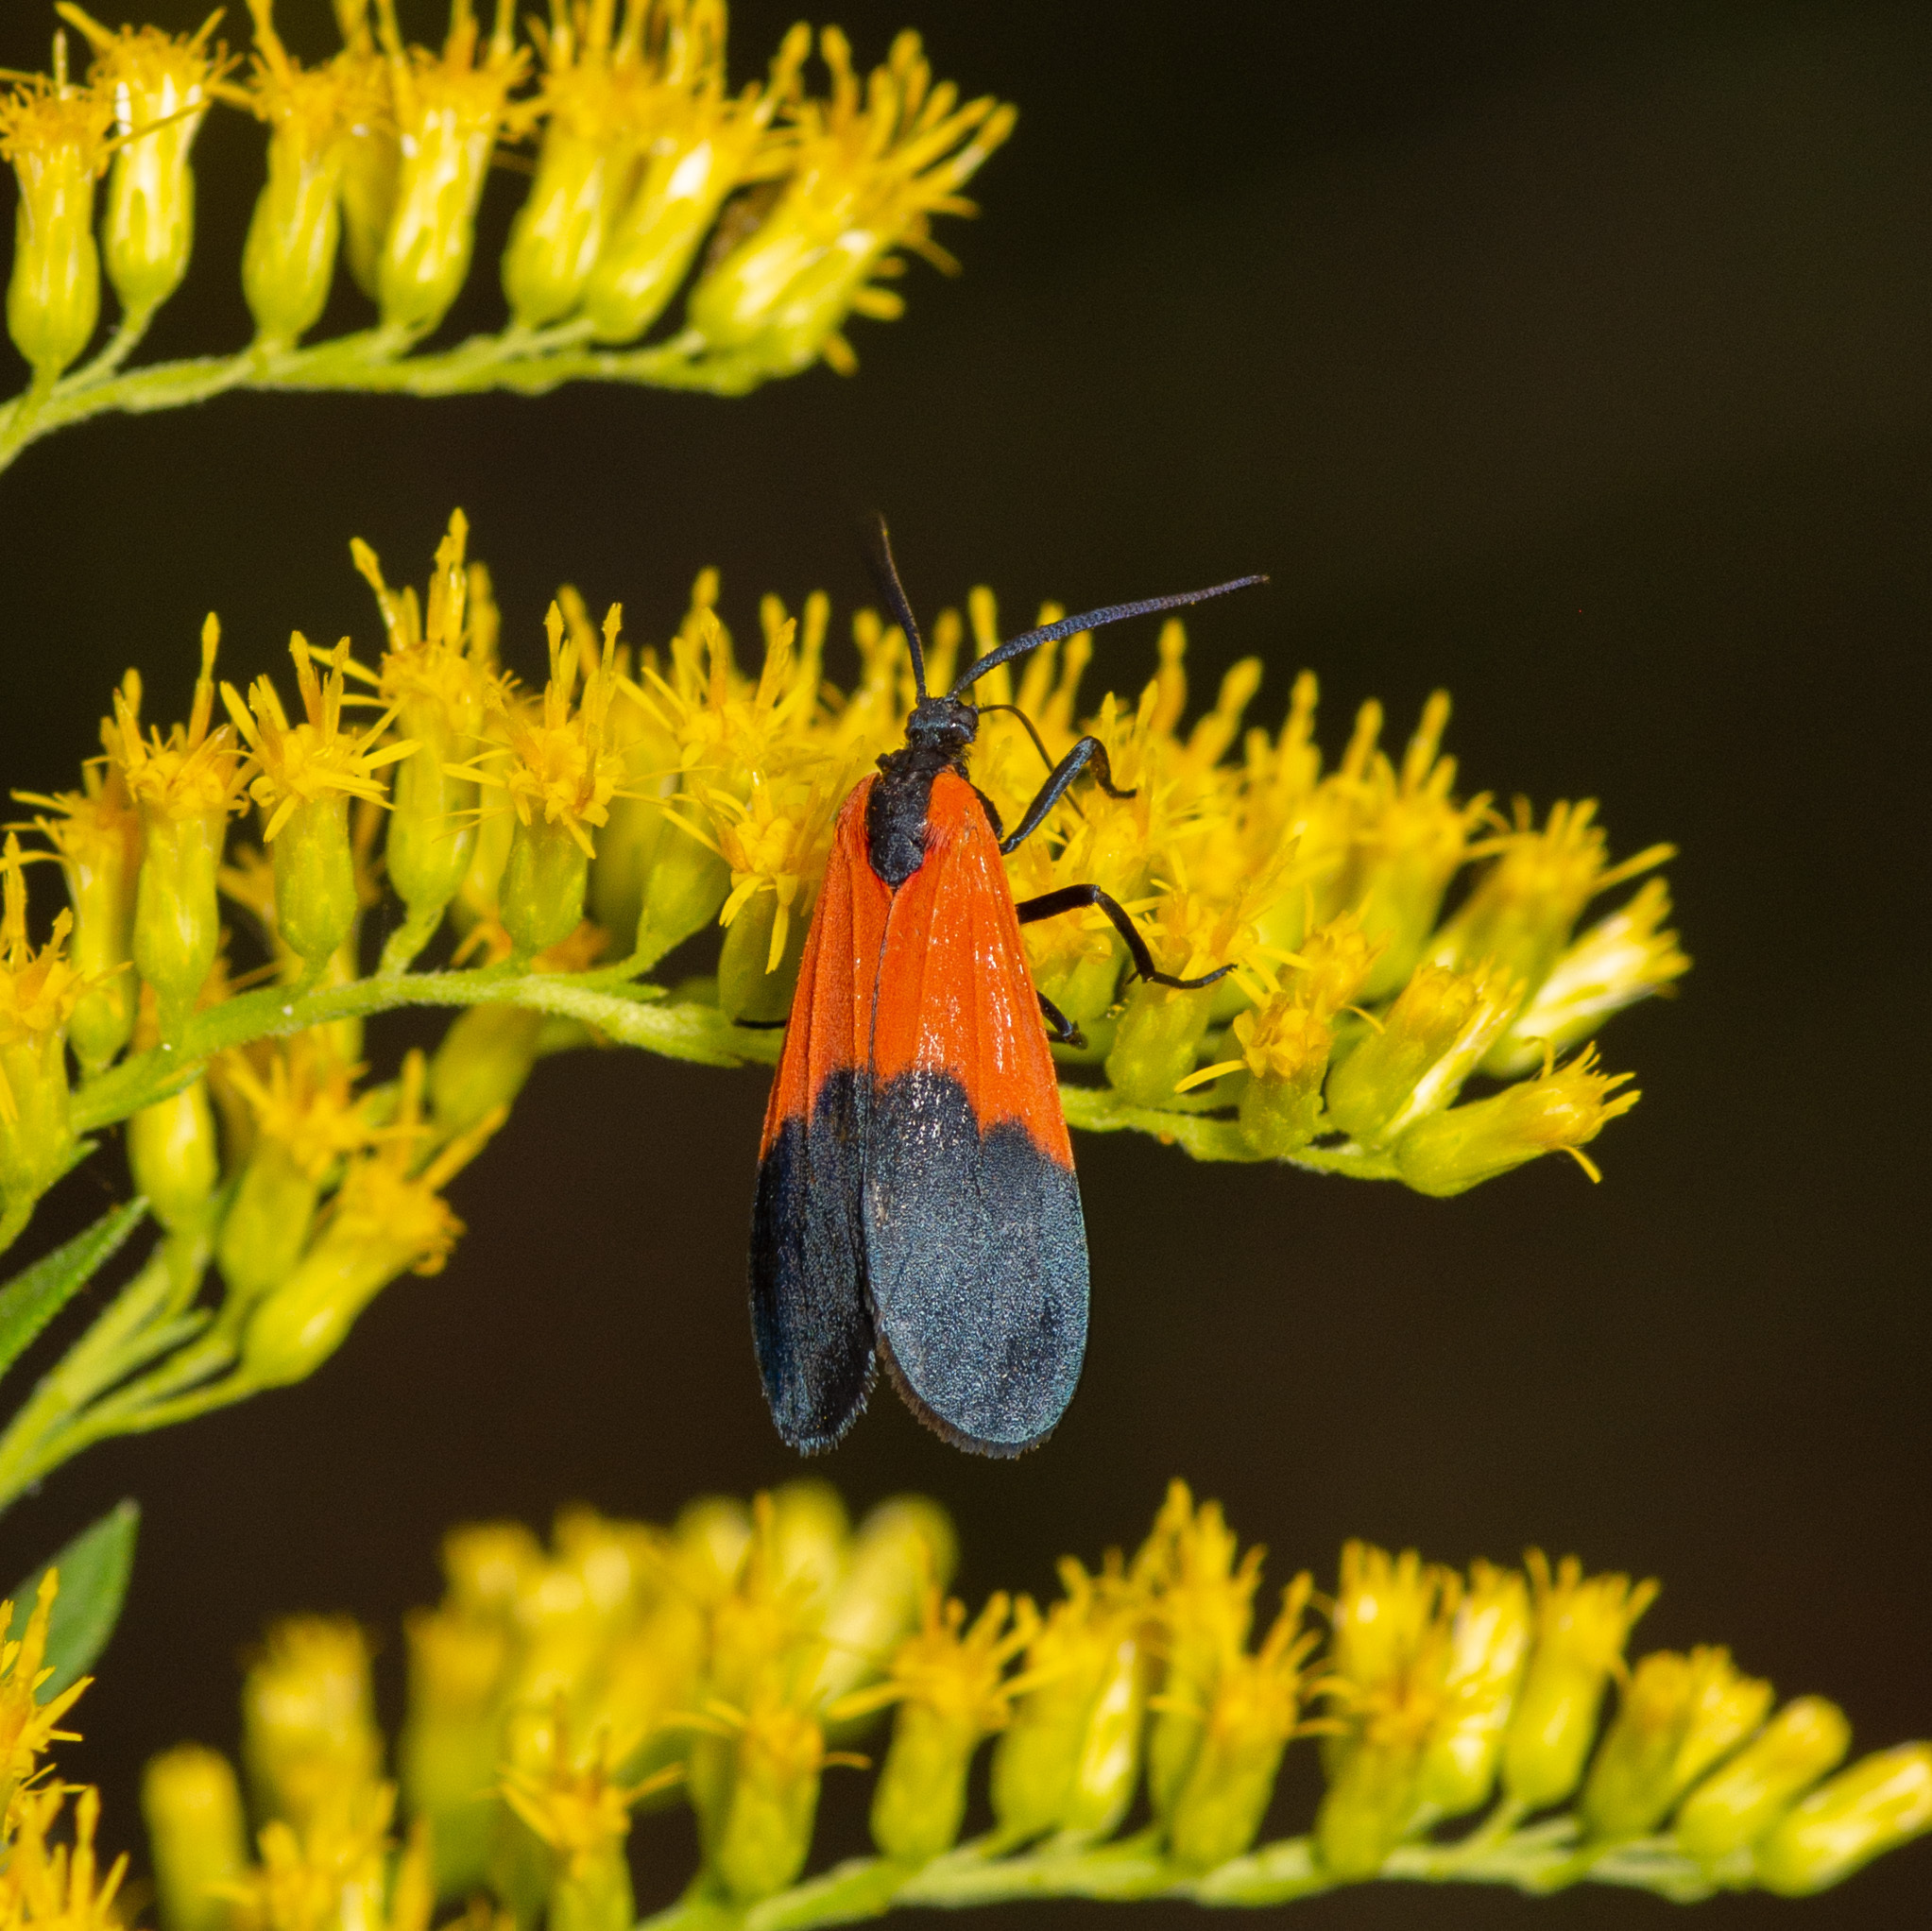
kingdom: Animalia
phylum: Arthropoda
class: Insecta
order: Lepidoptera
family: Erebidae
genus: Lycomorpha
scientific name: Lycomorpha pholus
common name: Black-and-yellow lichen moth
